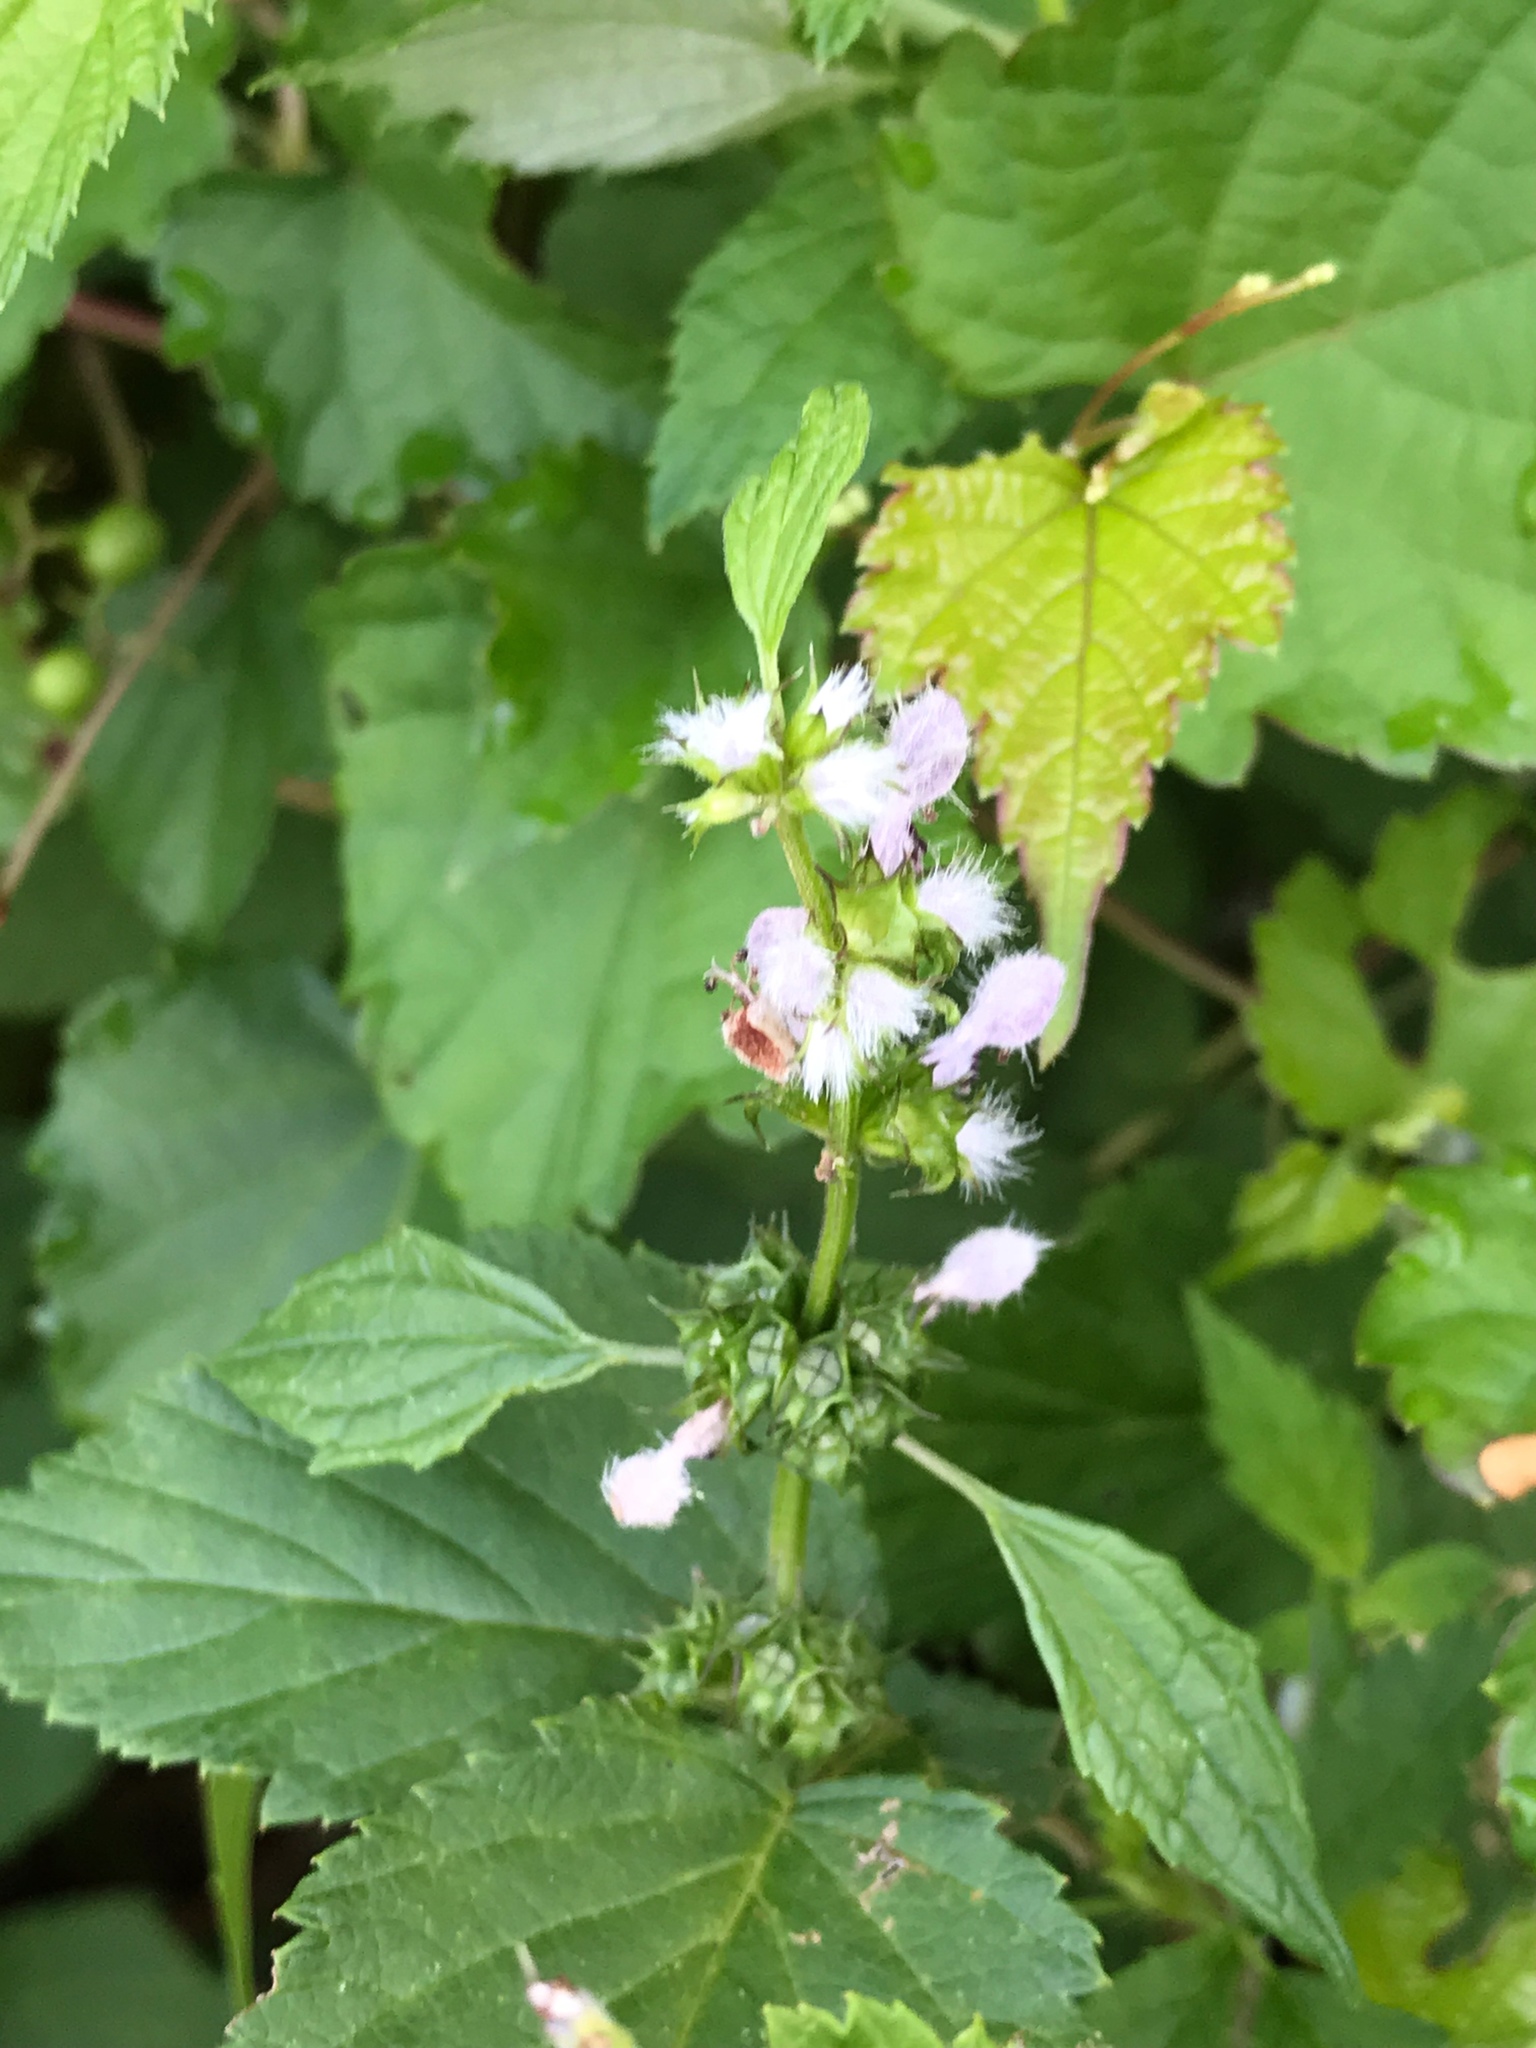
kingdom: Plantae
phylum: Tracheophyta
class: Magnoliopsida
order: Lamiales
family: Lamiaceae
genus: Leonurus
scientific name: Leonurus cardiaca
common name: Motherwort
